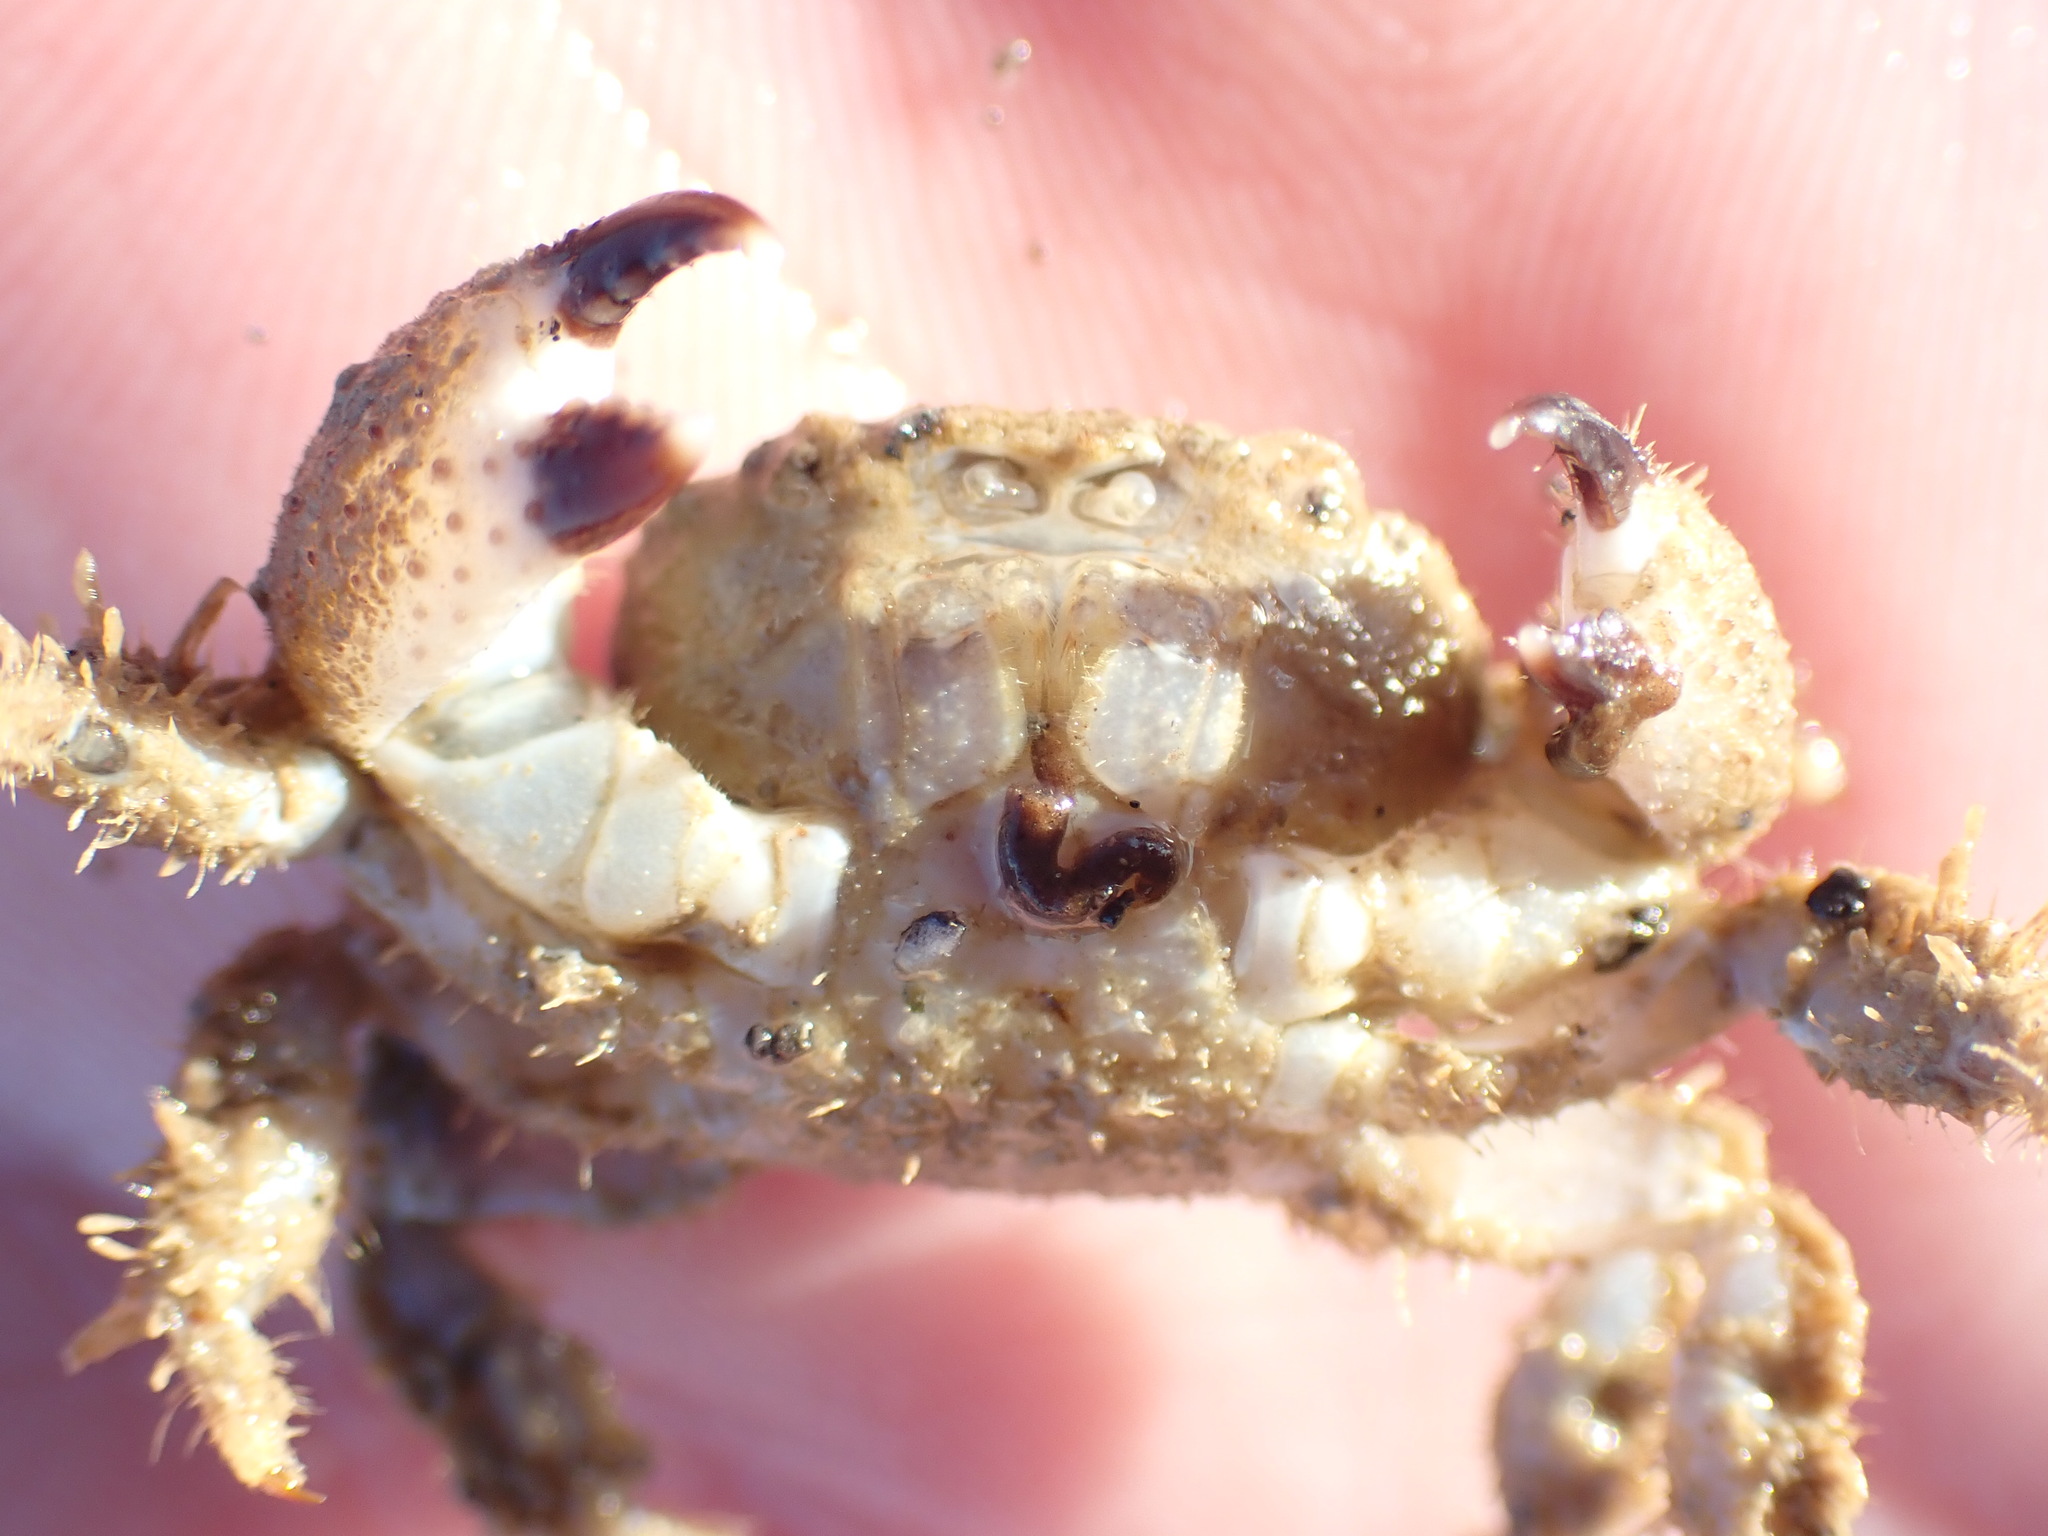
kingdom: Animalia
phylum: Arthropoda
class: Malacostraca
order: Decapoda
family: Pilumnidae
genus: Pilumnus
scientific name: Pilumnus lumpinus
